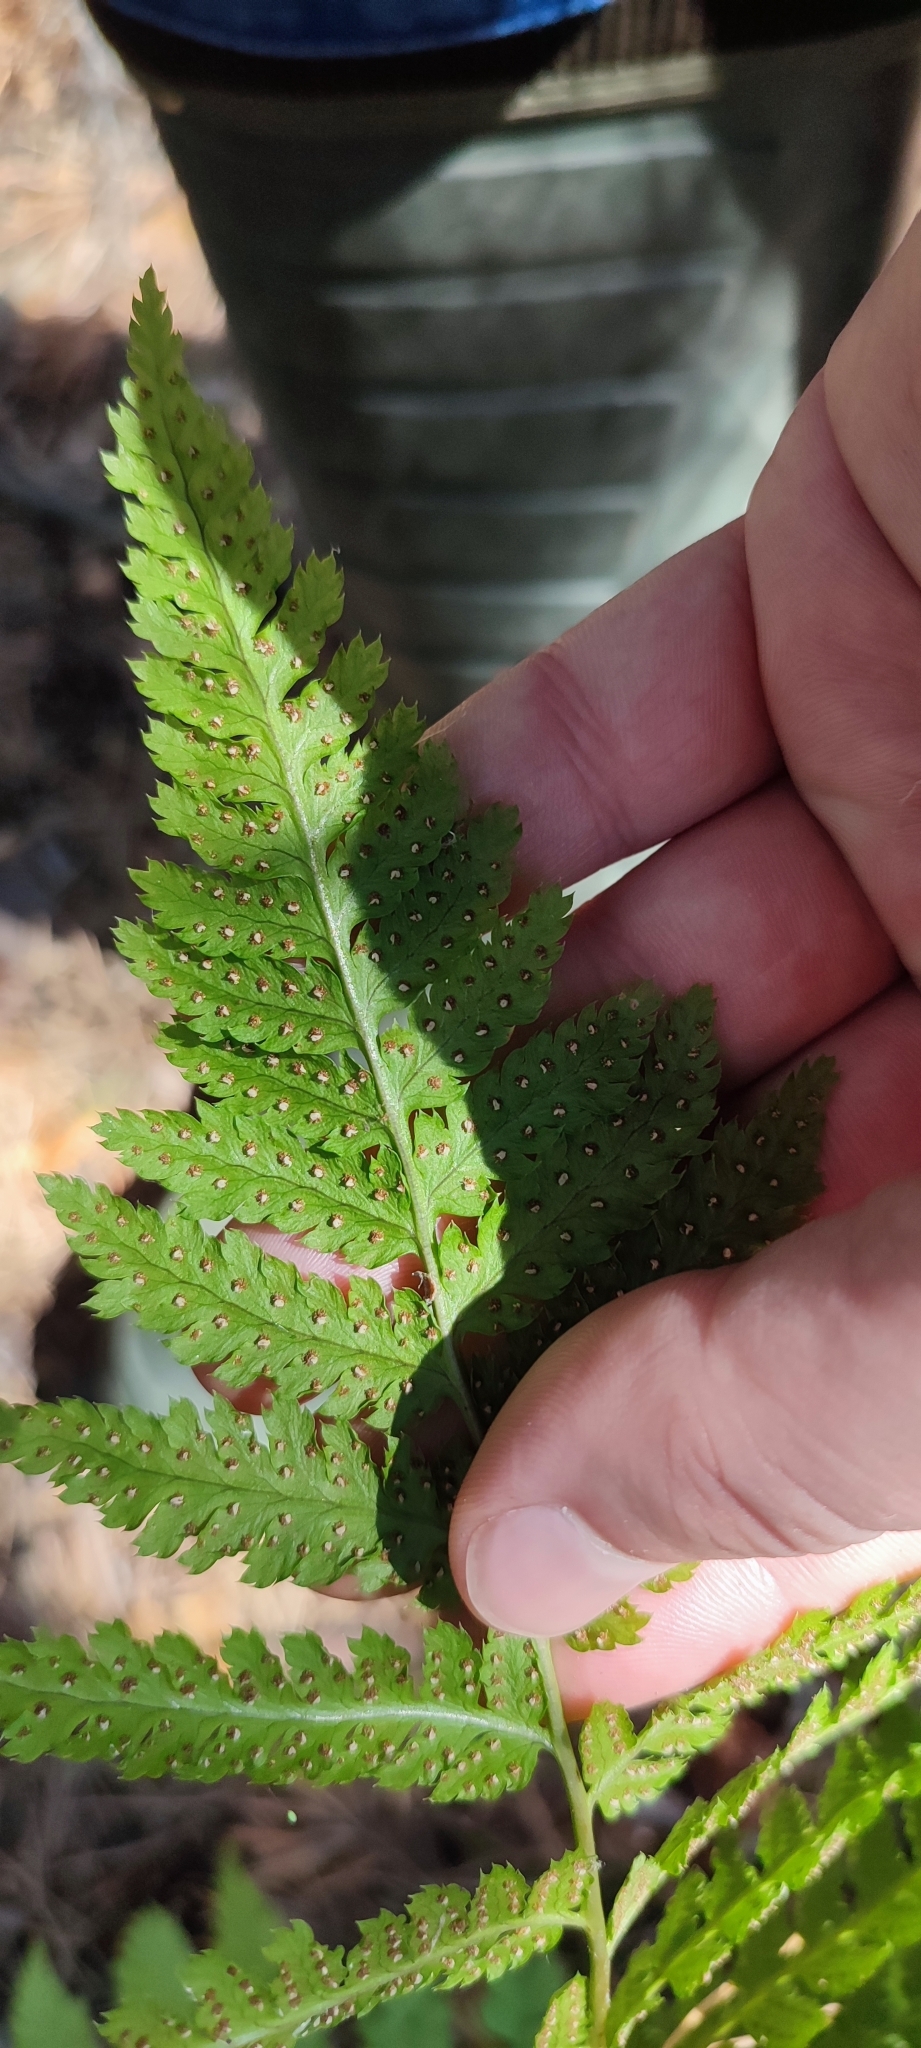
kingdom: Plantae
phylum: Tracheophyta
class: Polypodiopsida
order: Polypodiales
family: Dryopteridaceae
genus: Dryopteris
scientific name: Dryopteris carthusiana
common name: Narrow buckler-fern
